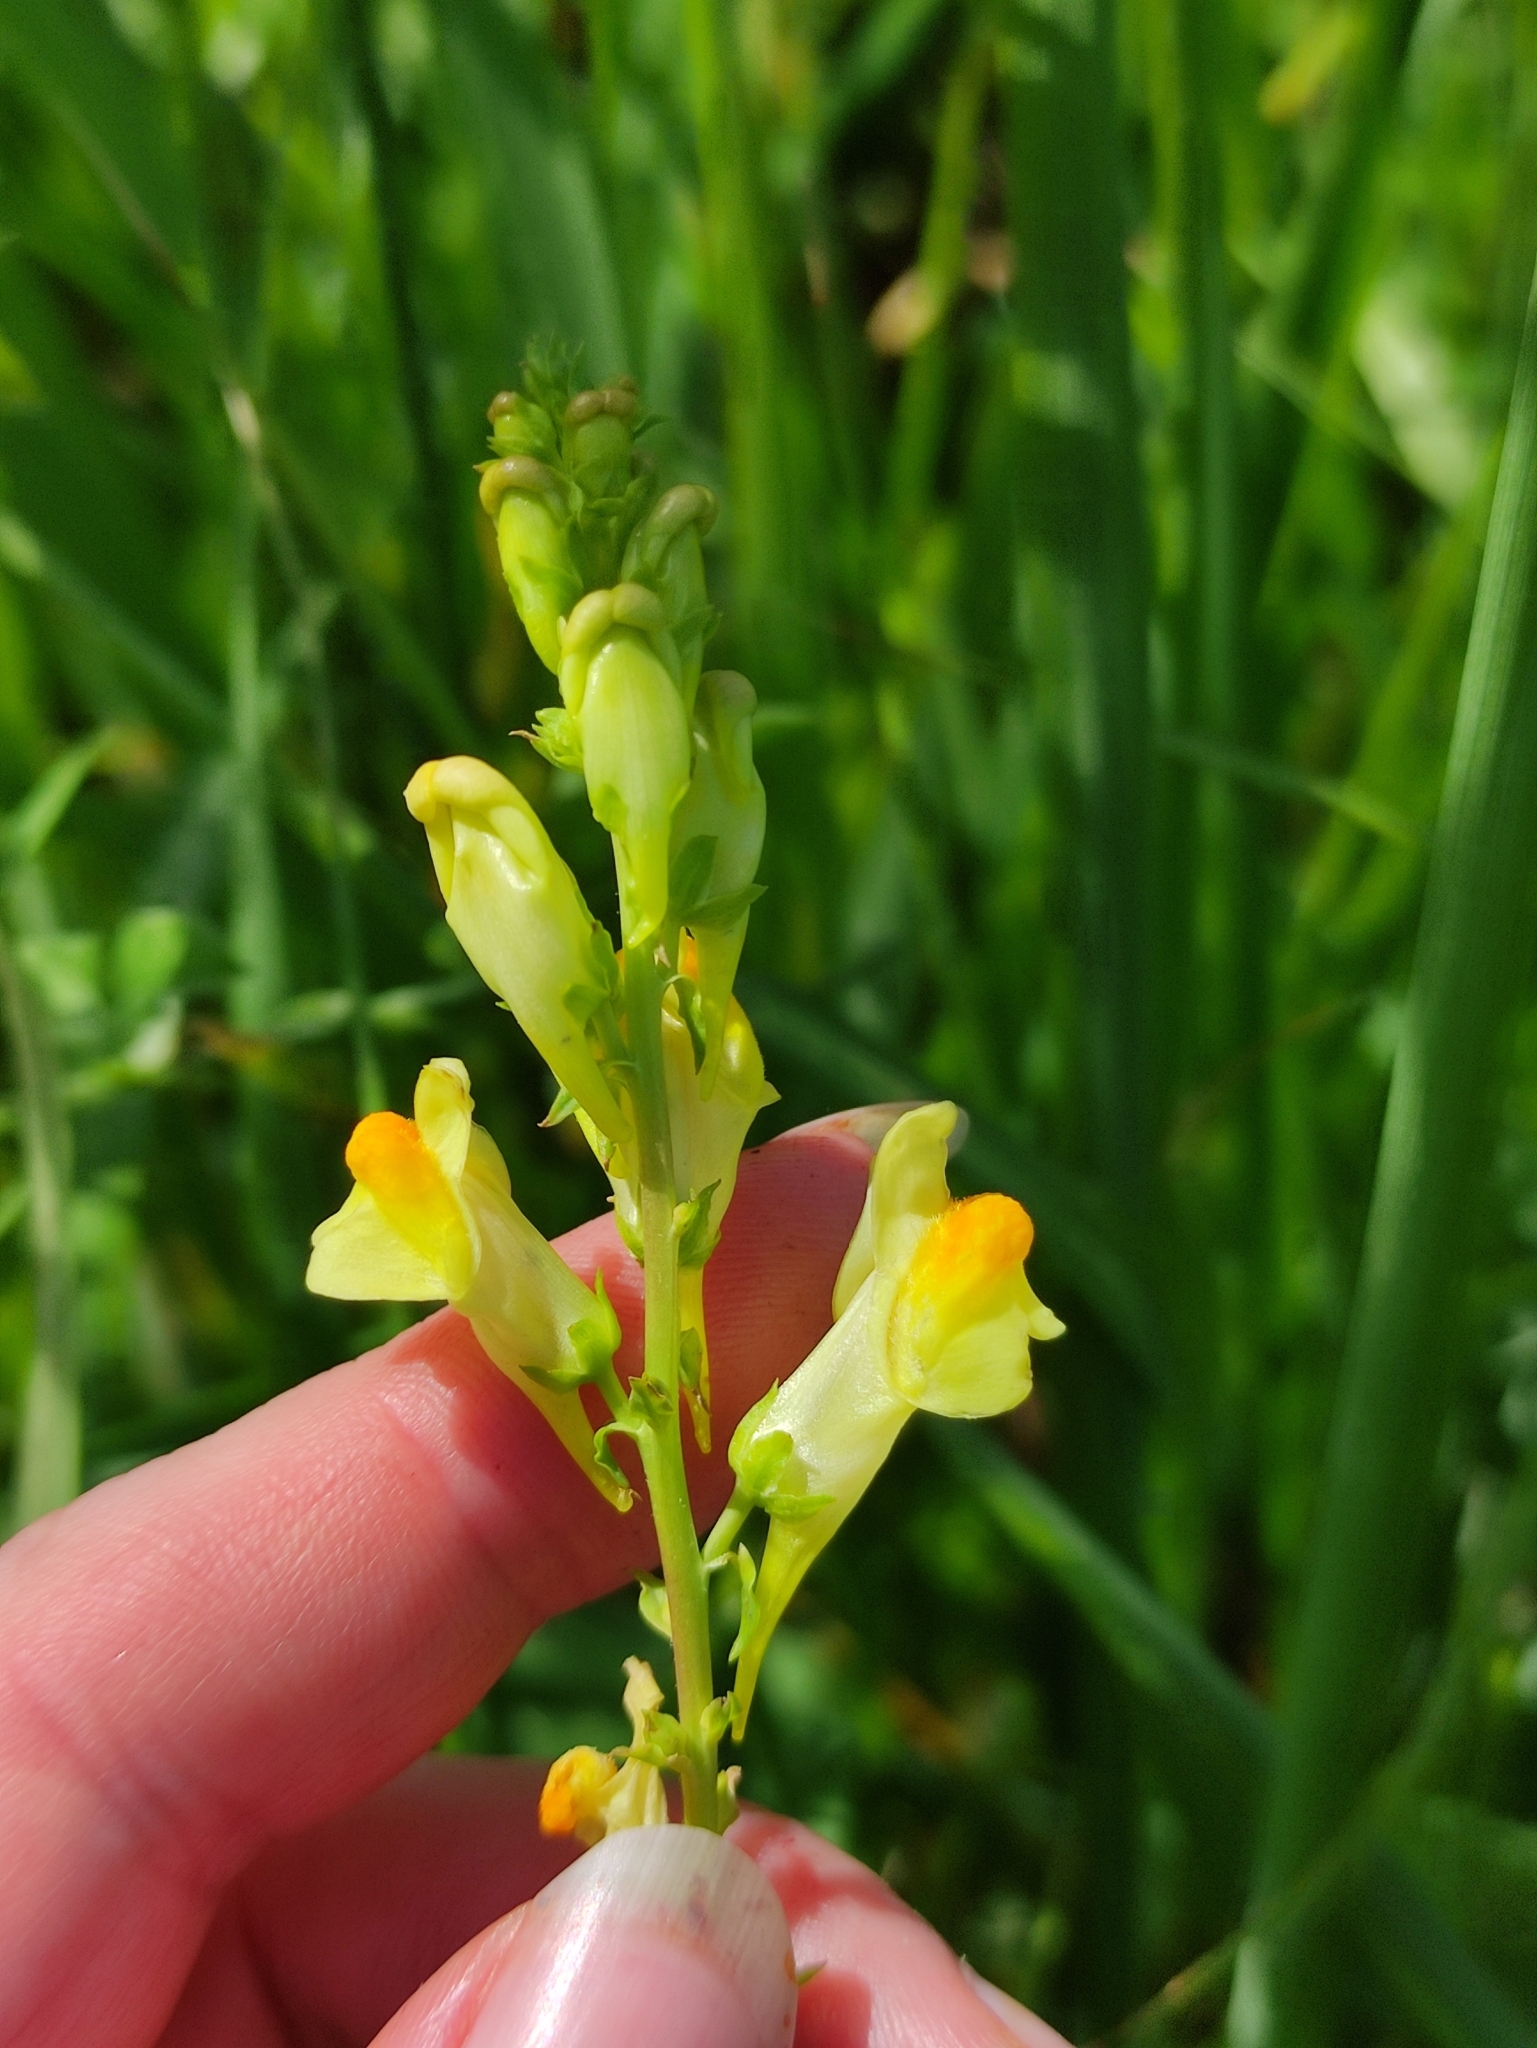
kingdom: Plantae
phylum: Tracheophyta
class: Magnoliopsida
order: Lamiales
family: Plantaginaceae
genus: Linaria
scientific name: Linaria vulgaris
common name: Butter and eggs
